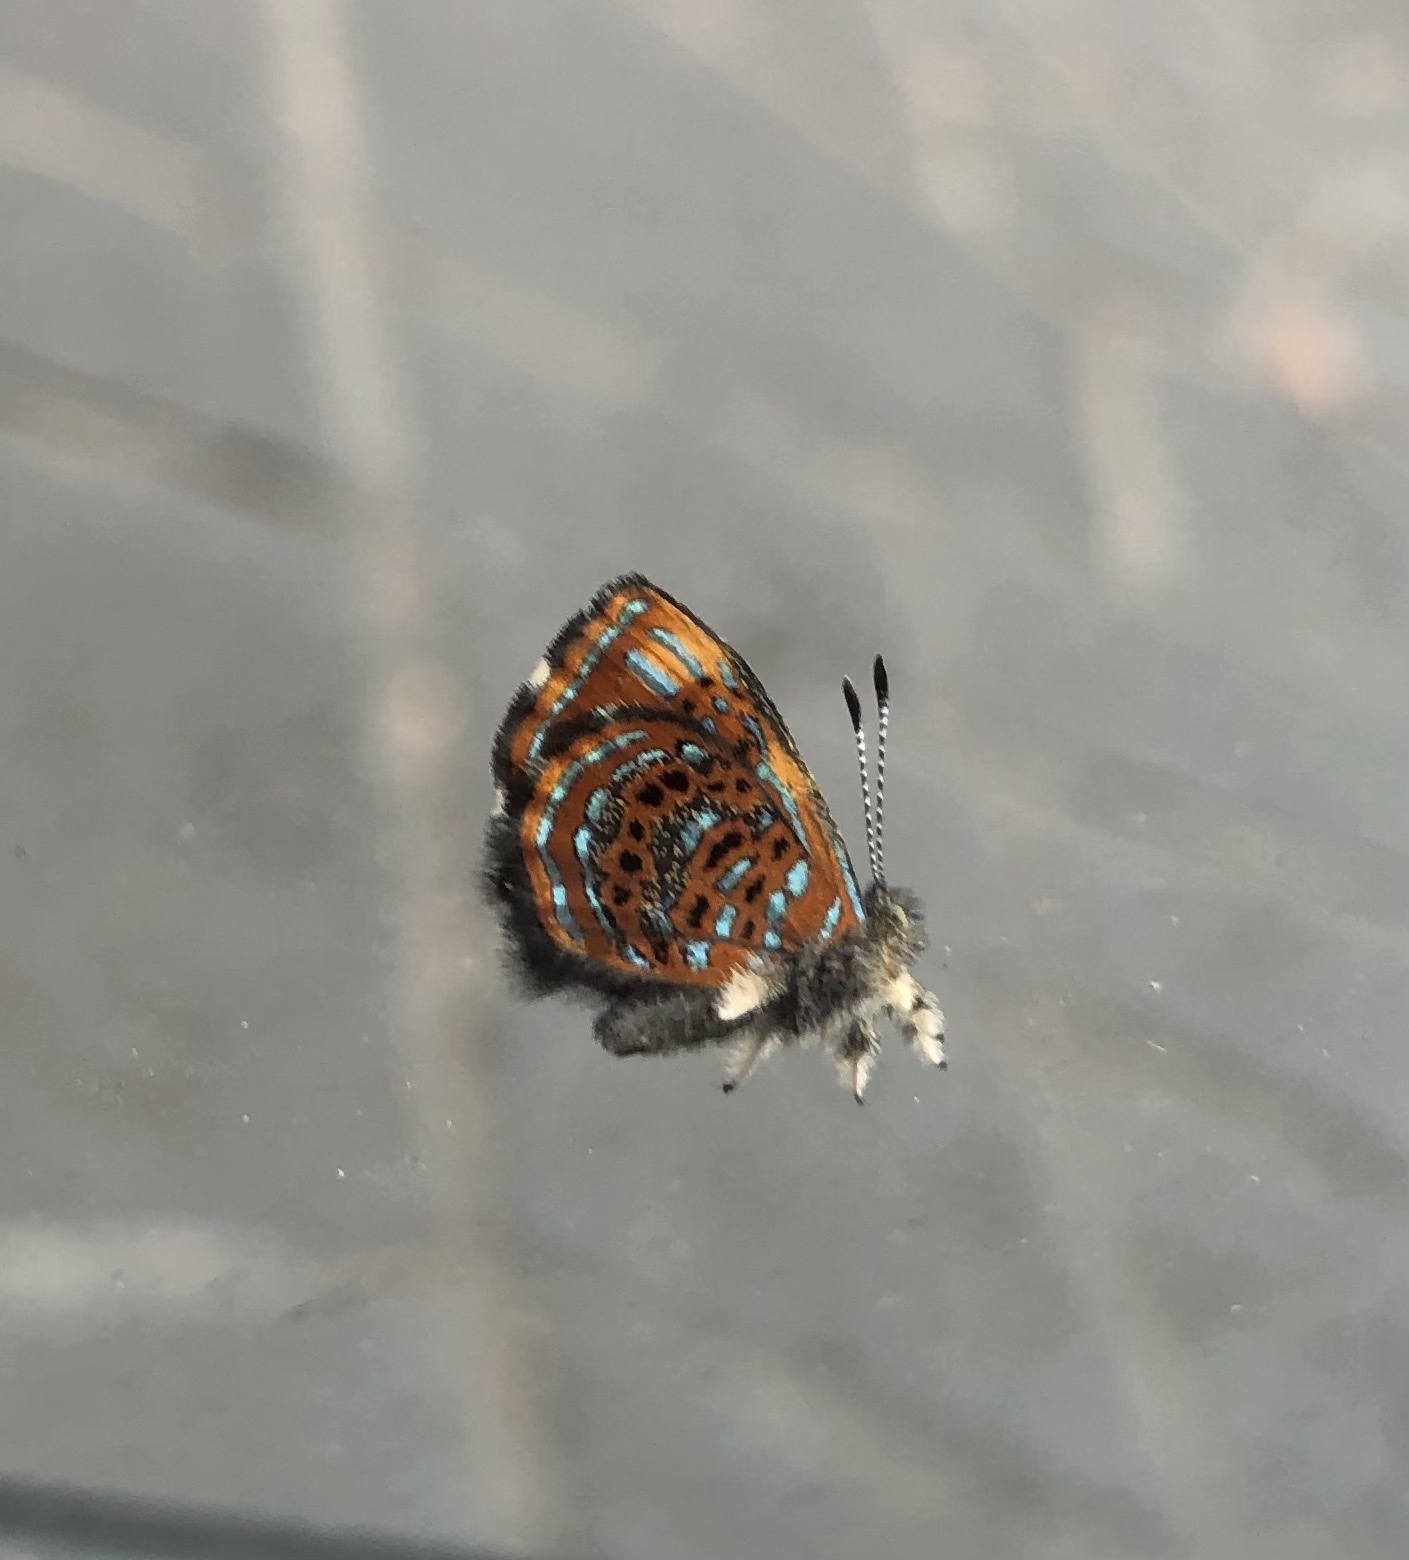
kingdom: Animalia
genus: Charis
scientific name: Charis estrada
